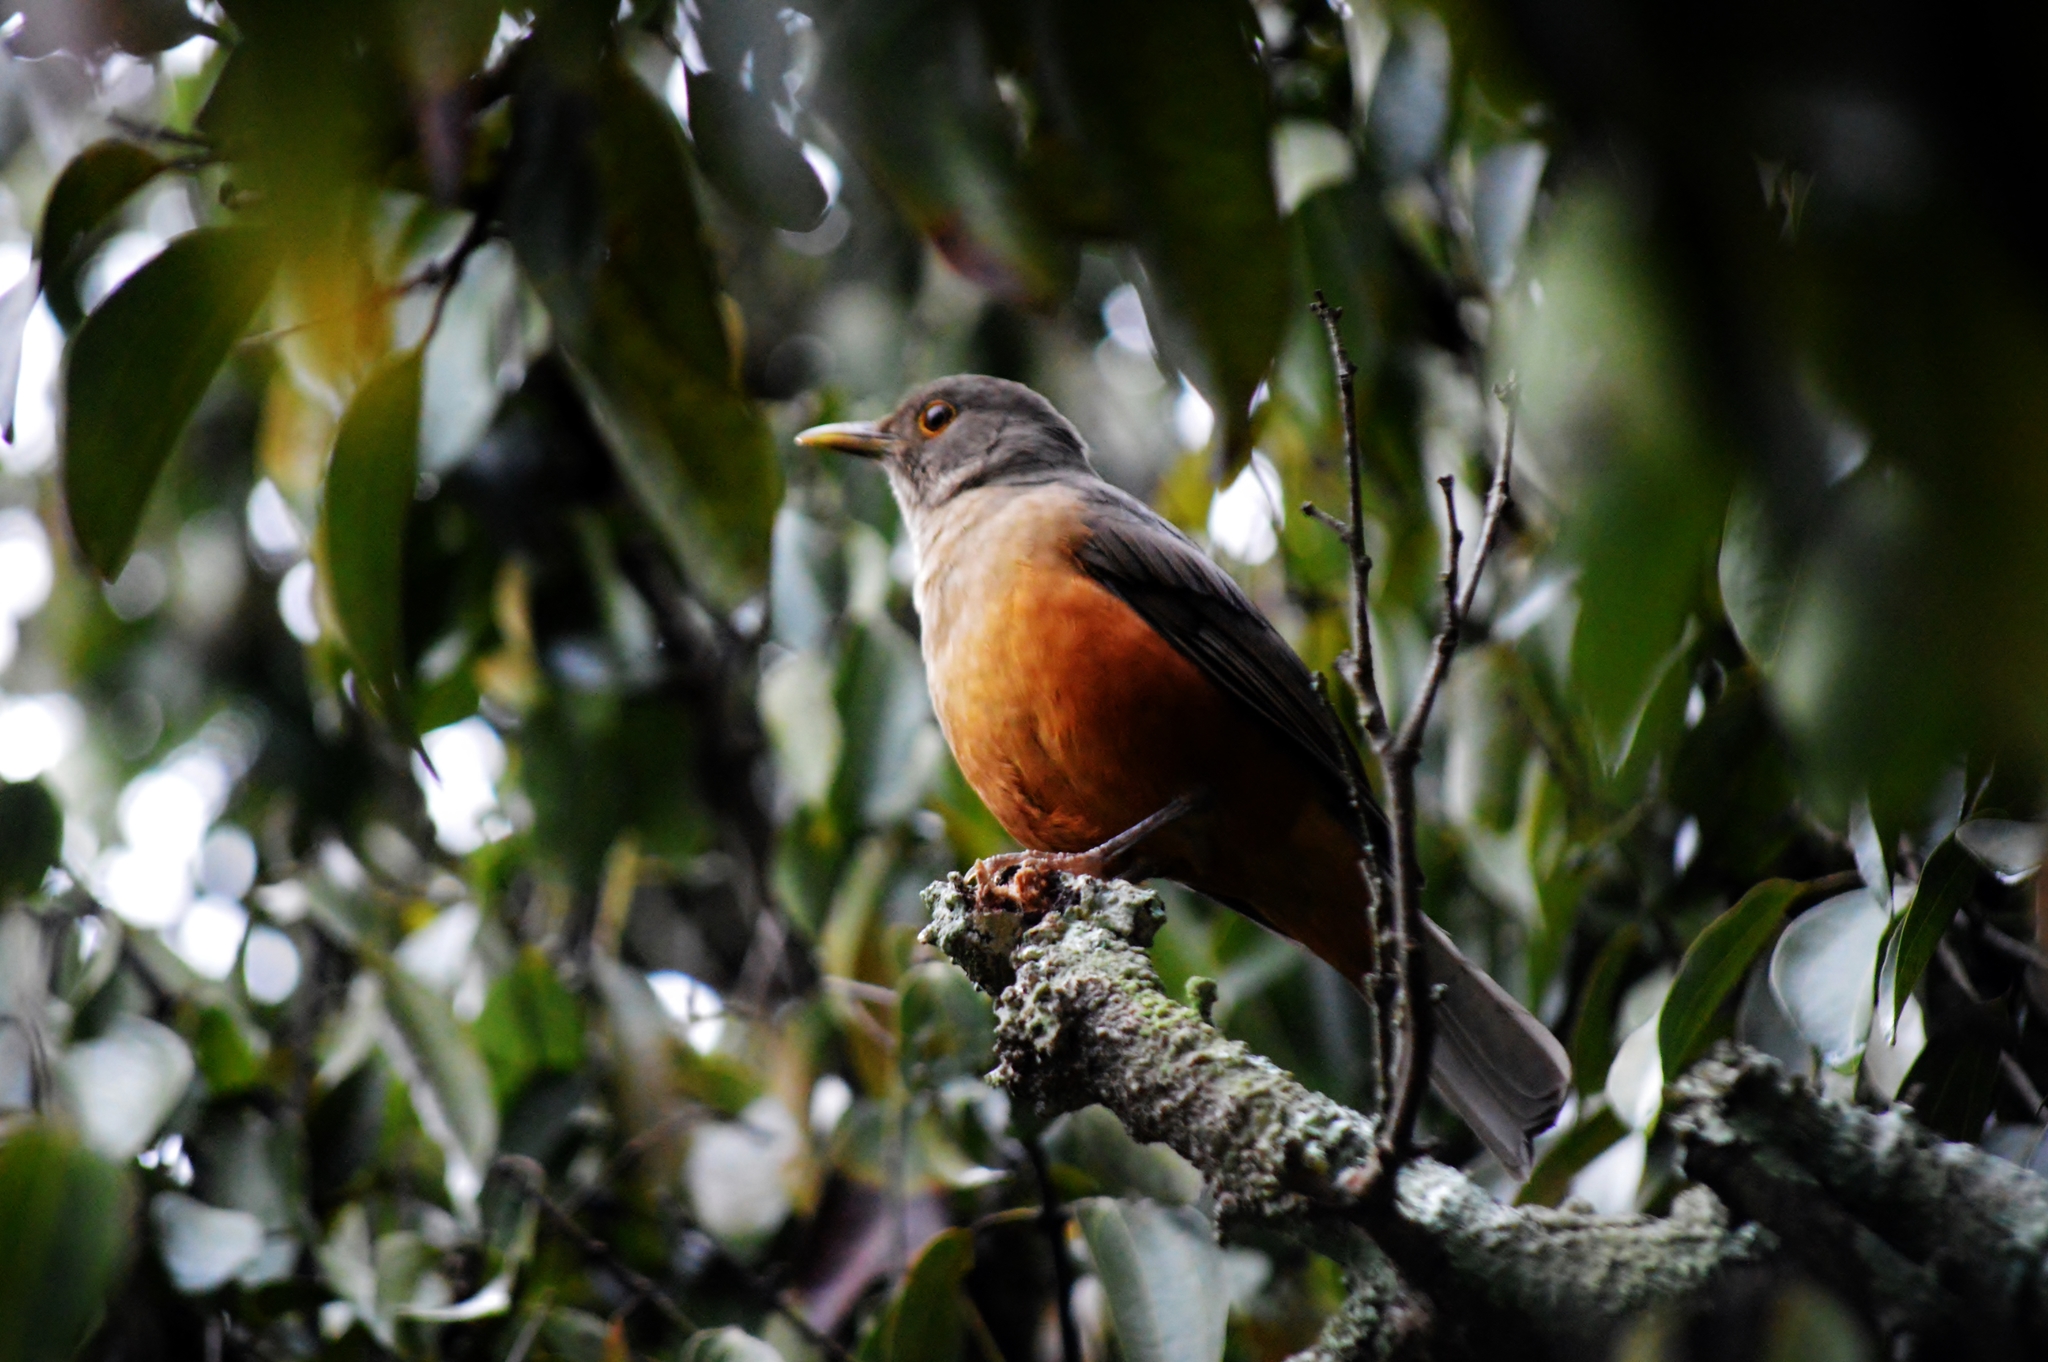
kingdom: Animalia
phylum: Chordata
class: Aves
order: Passeriformes
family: Turdidae
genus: Turdus
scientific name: Turdus rufiventris
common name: Rufous-bellied thrush
